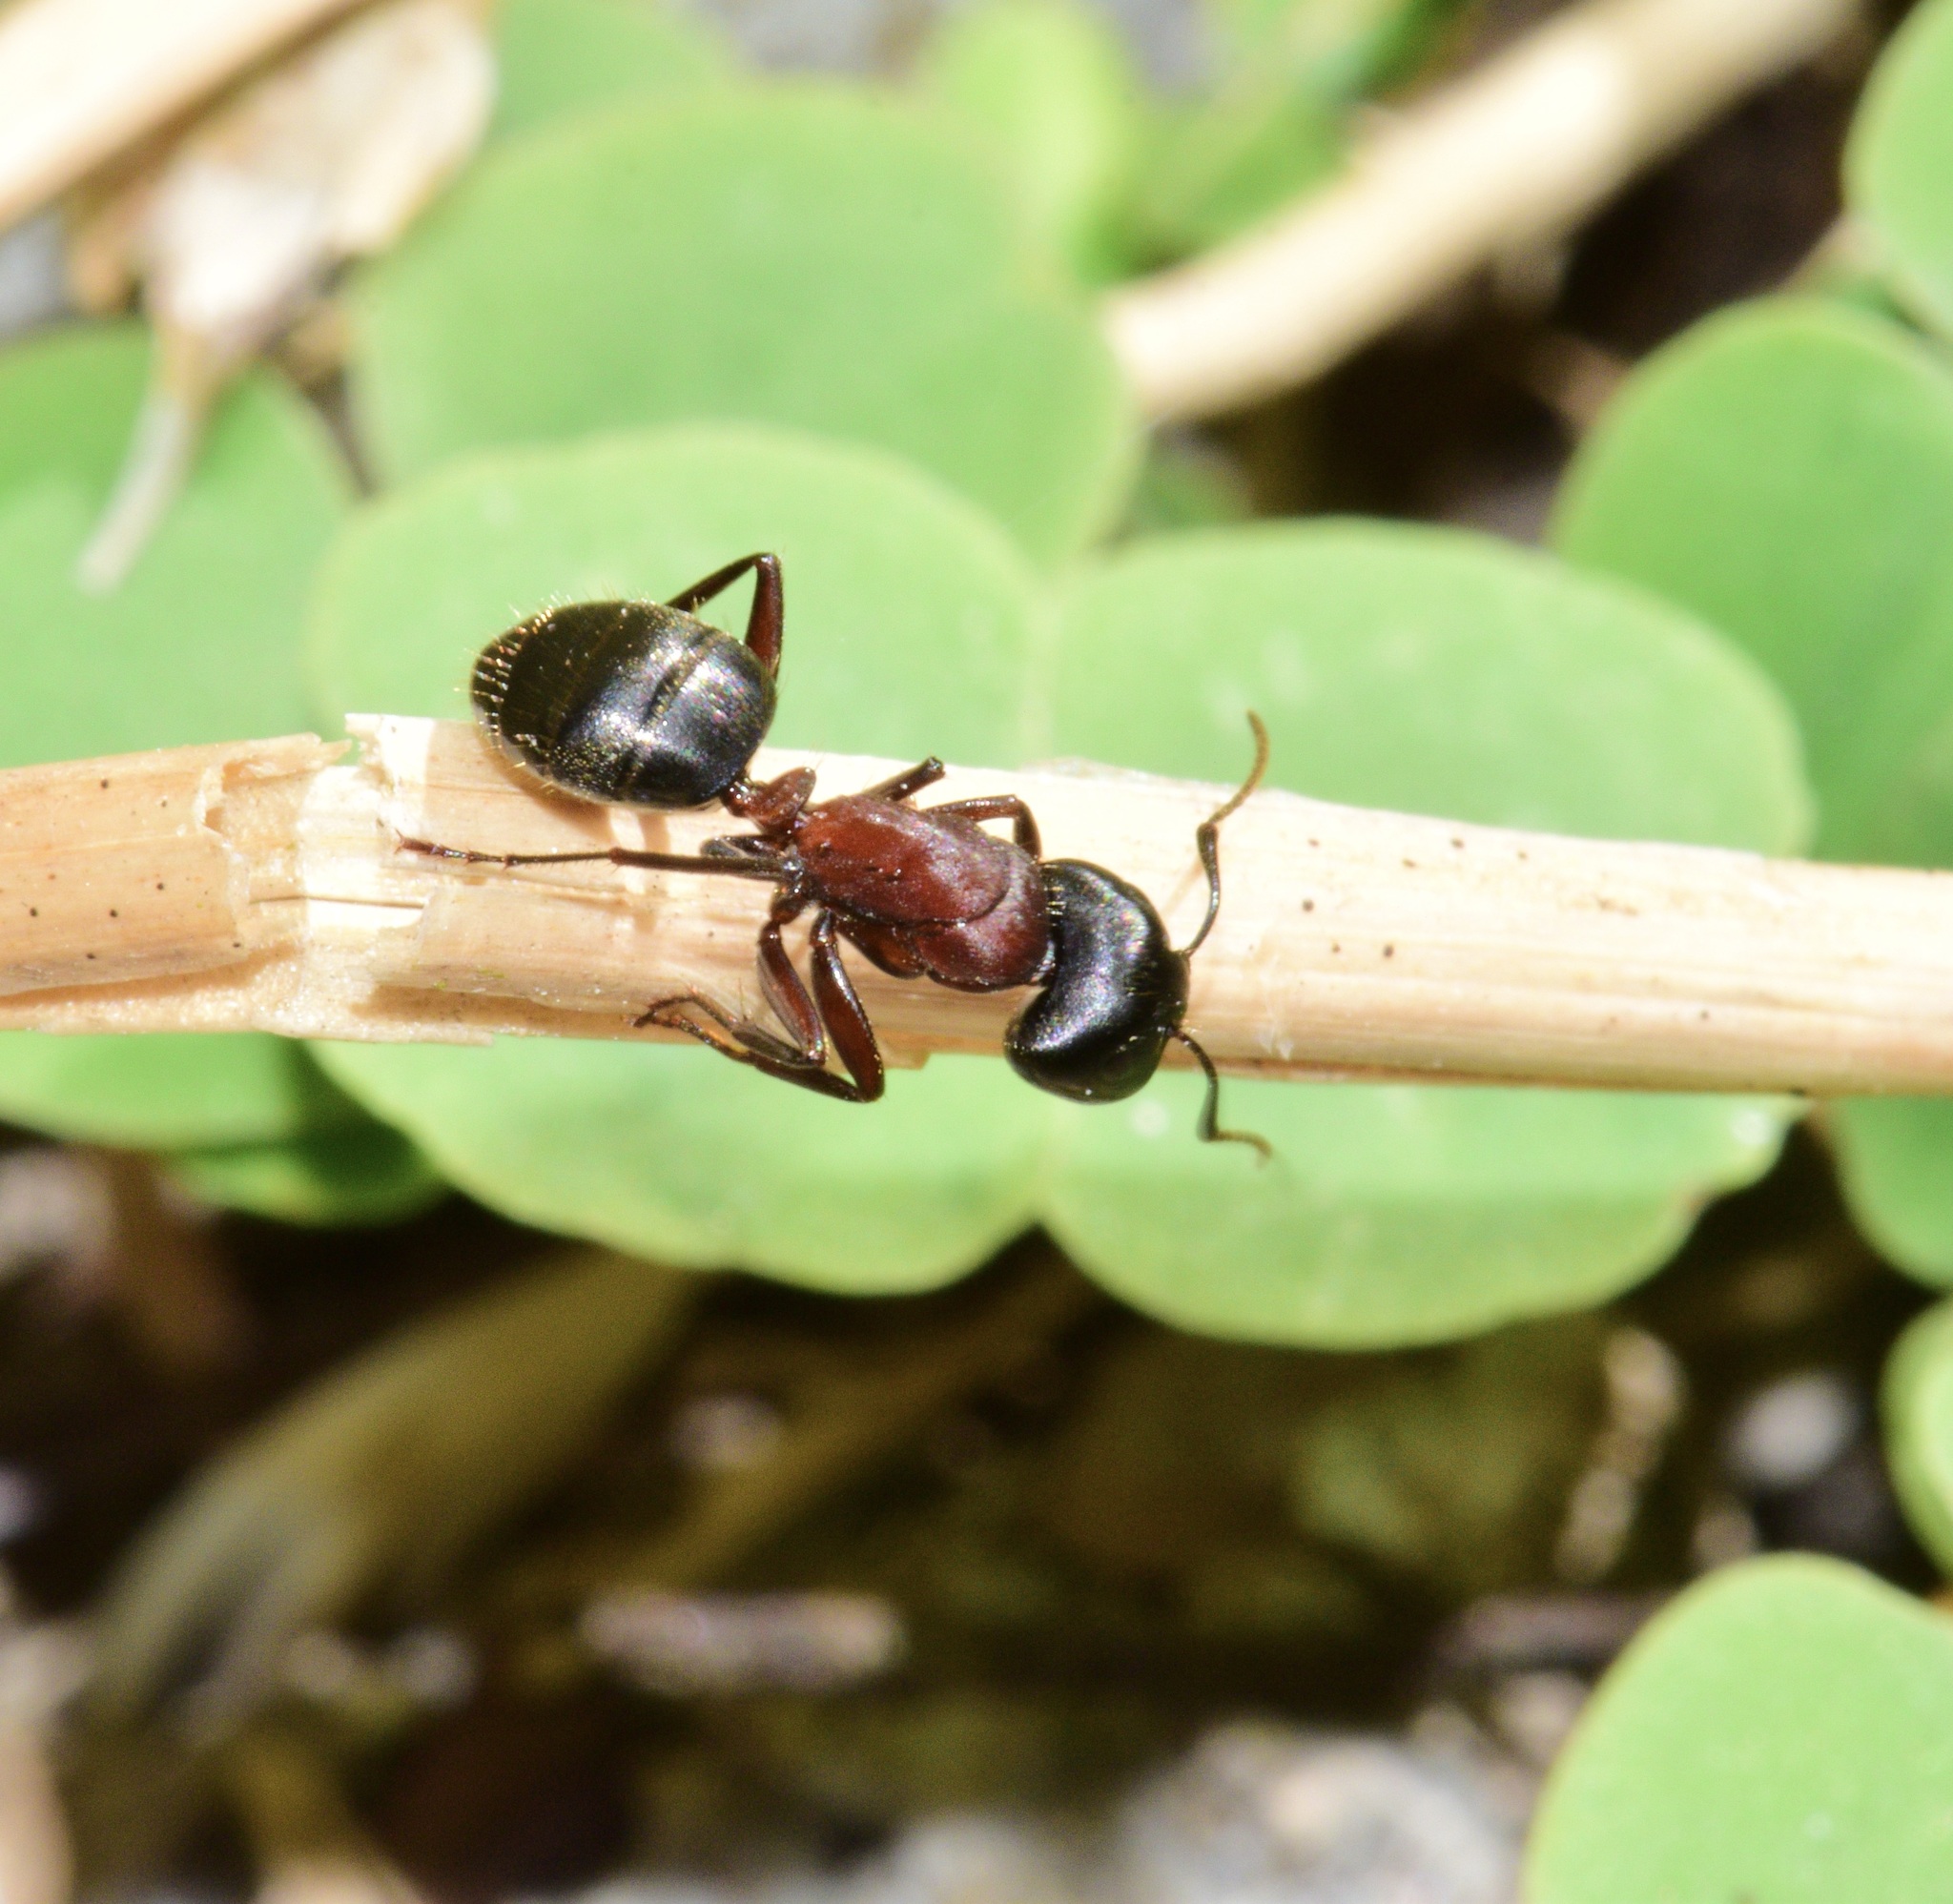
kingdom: Animalia
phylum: Arthropoda
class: Insecta
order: Hymenoptera
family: Formicidae
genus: Camponotus
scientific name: Camponotus novaeboracensis
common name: New york carpenter ant
